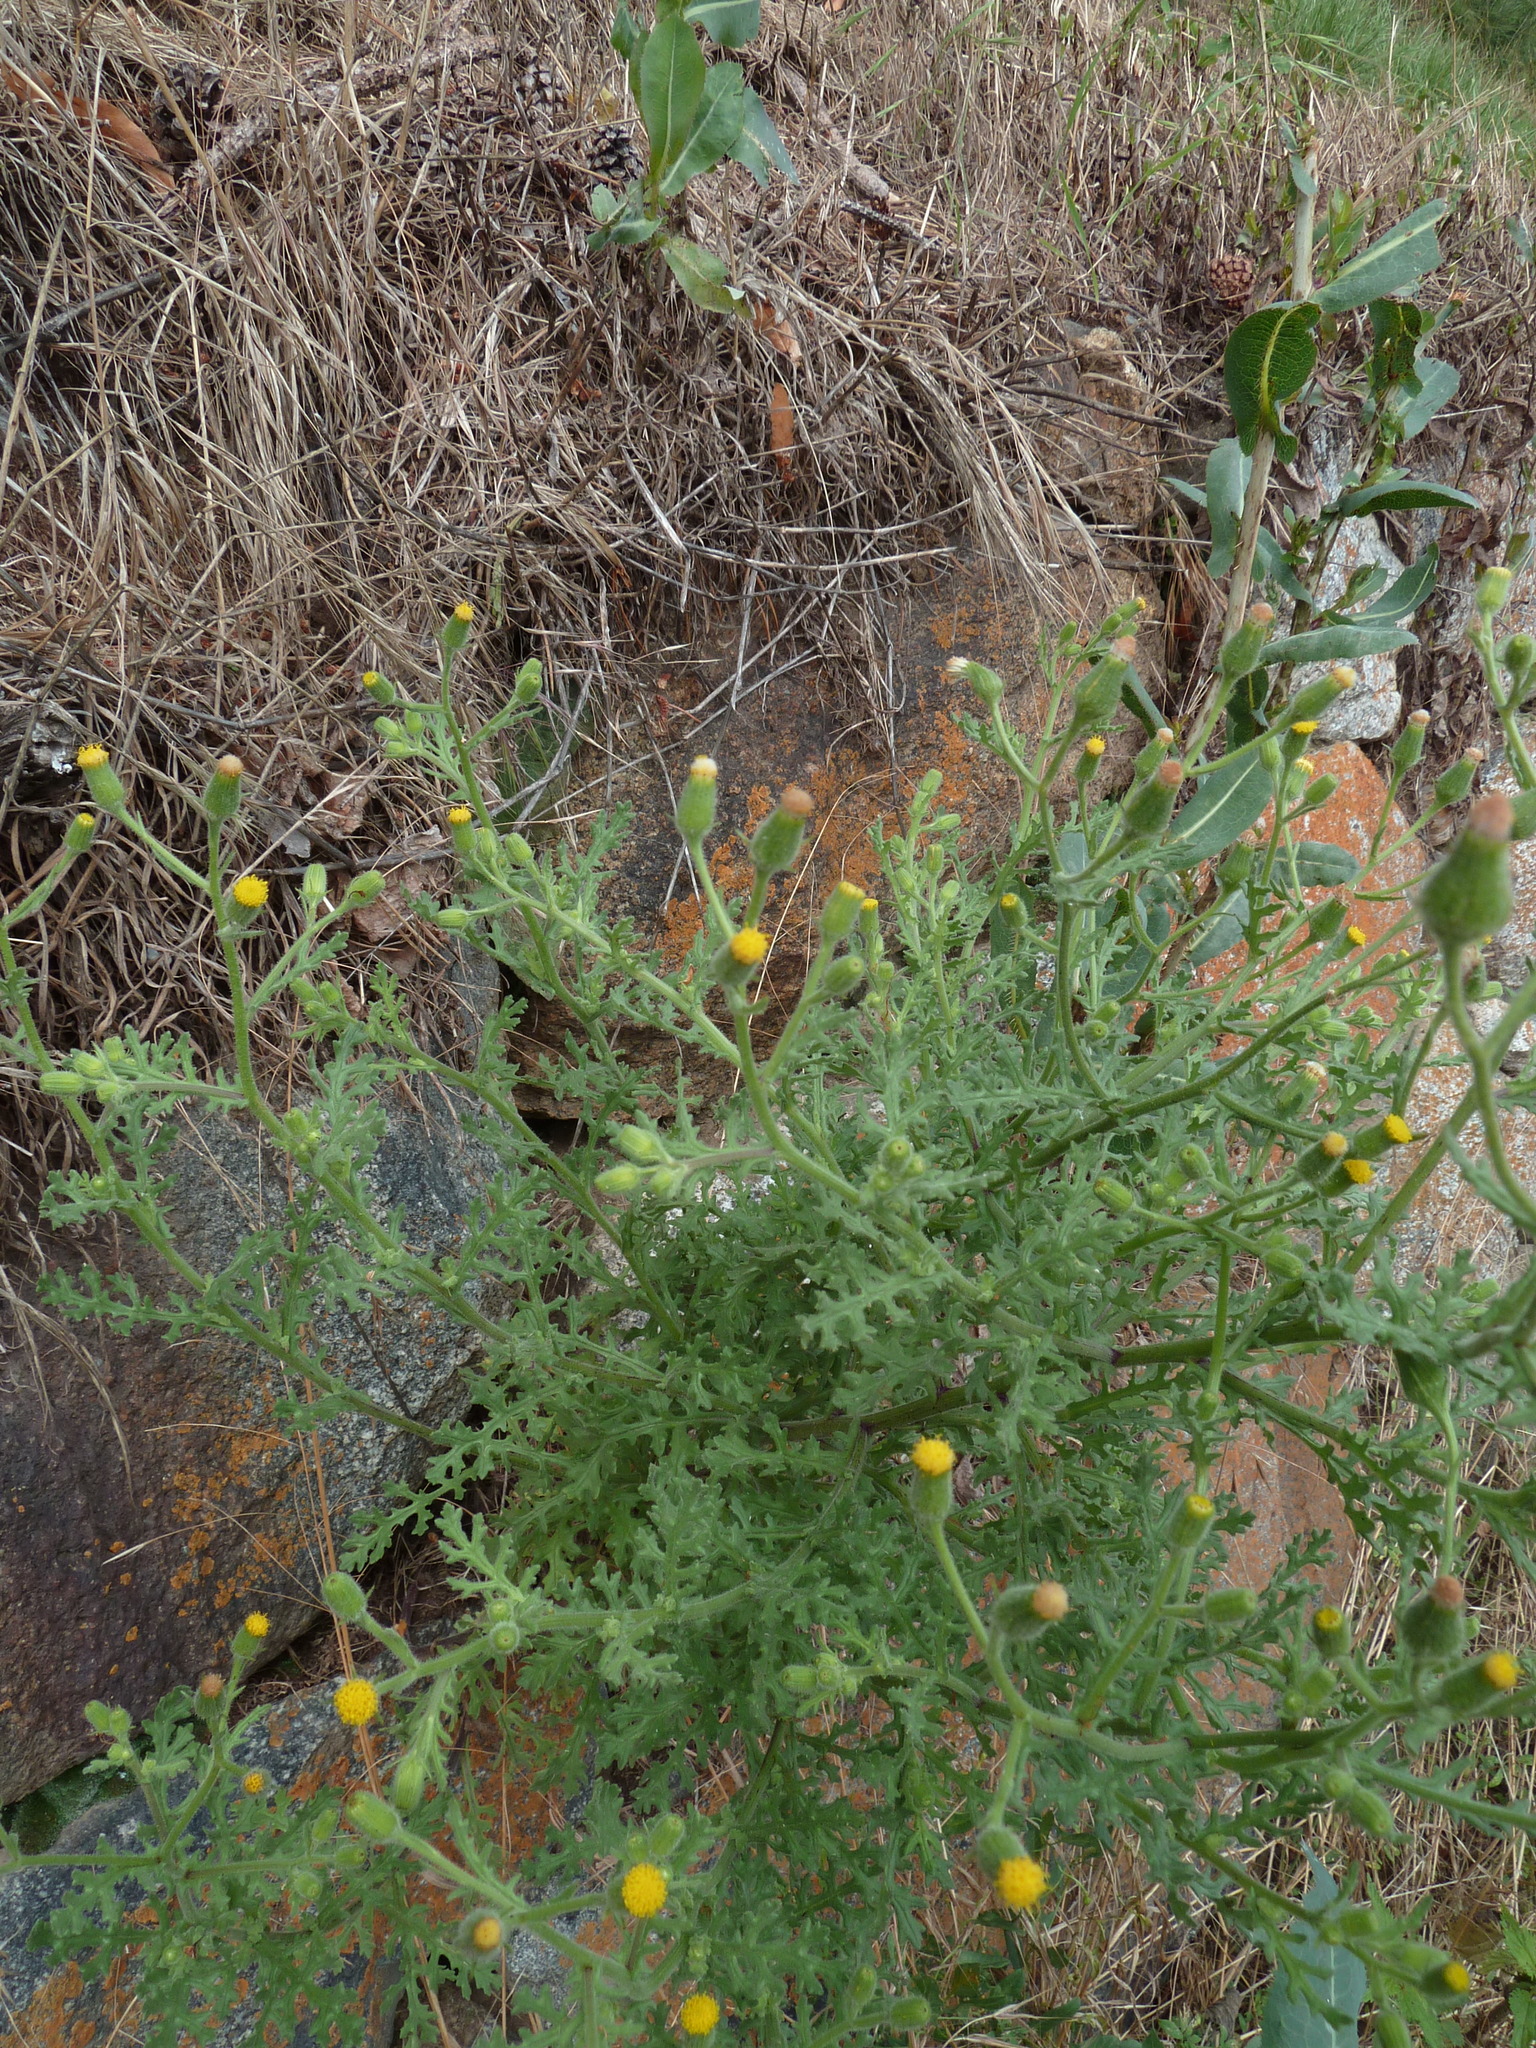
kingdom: Plantae
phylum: Tracheophyta
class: Magnoliopsida
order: Asterales
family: Asteraceae
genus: Senecio
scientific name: Senecio viscosus
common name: Sticky groundsel
